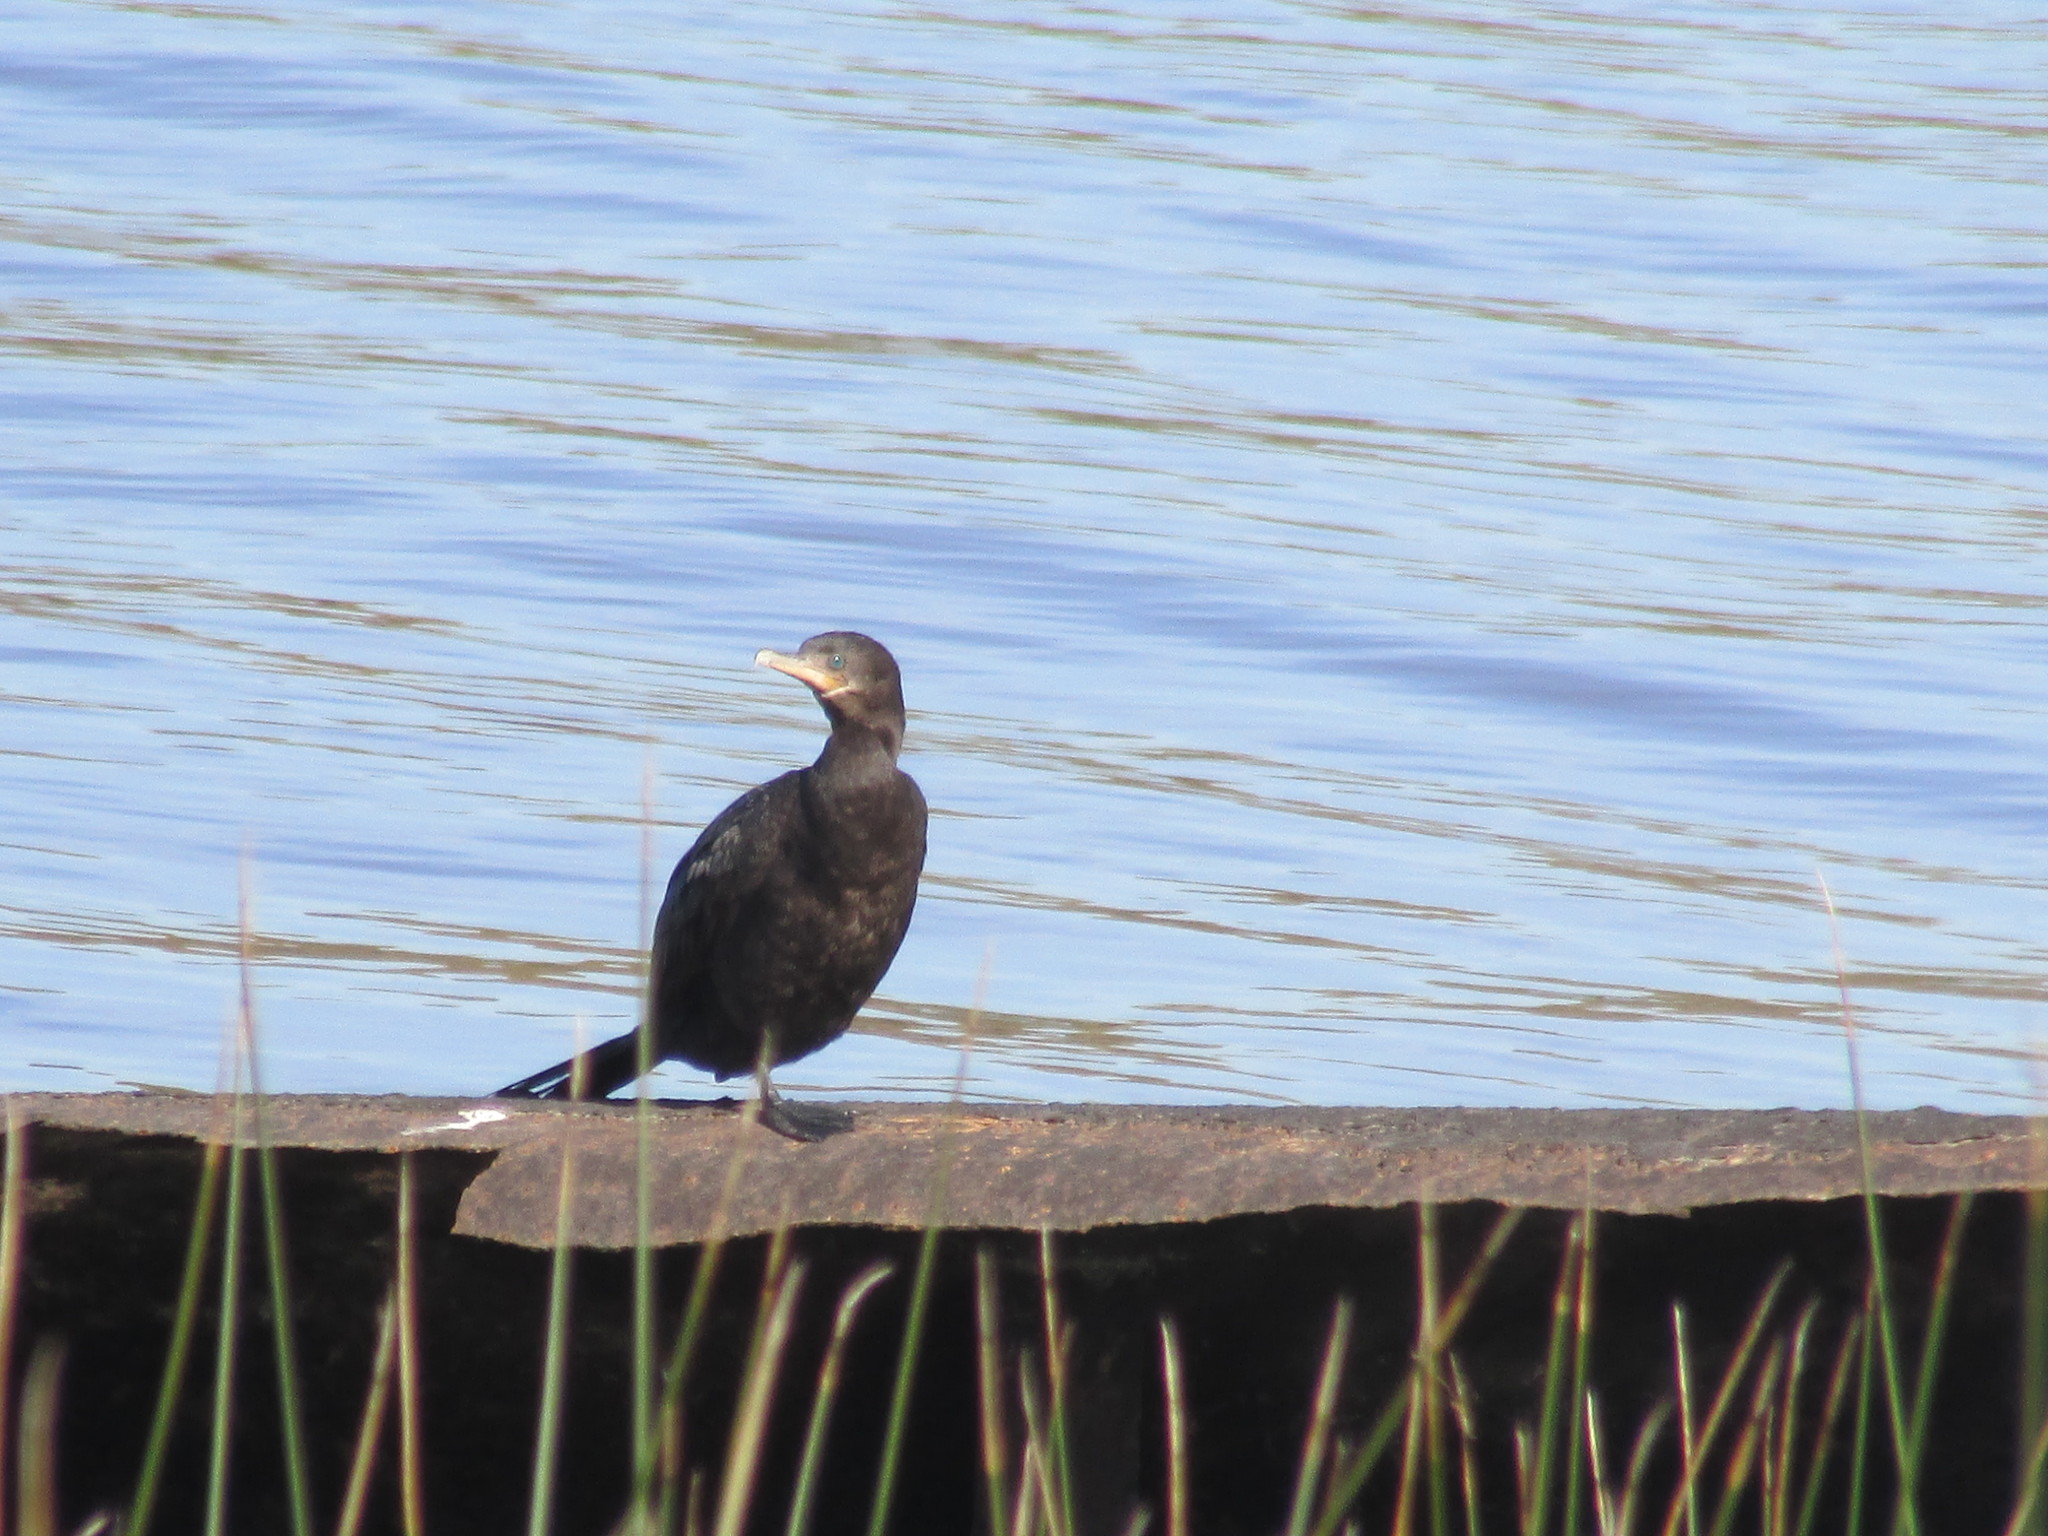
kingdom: Animalia
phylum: Chordata
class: Aves
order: Suliformes
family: Phalacrocoracidae
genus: Phalacrocorax
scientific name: Phalacrocorax brasilianus
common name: Neotropic cormorant
